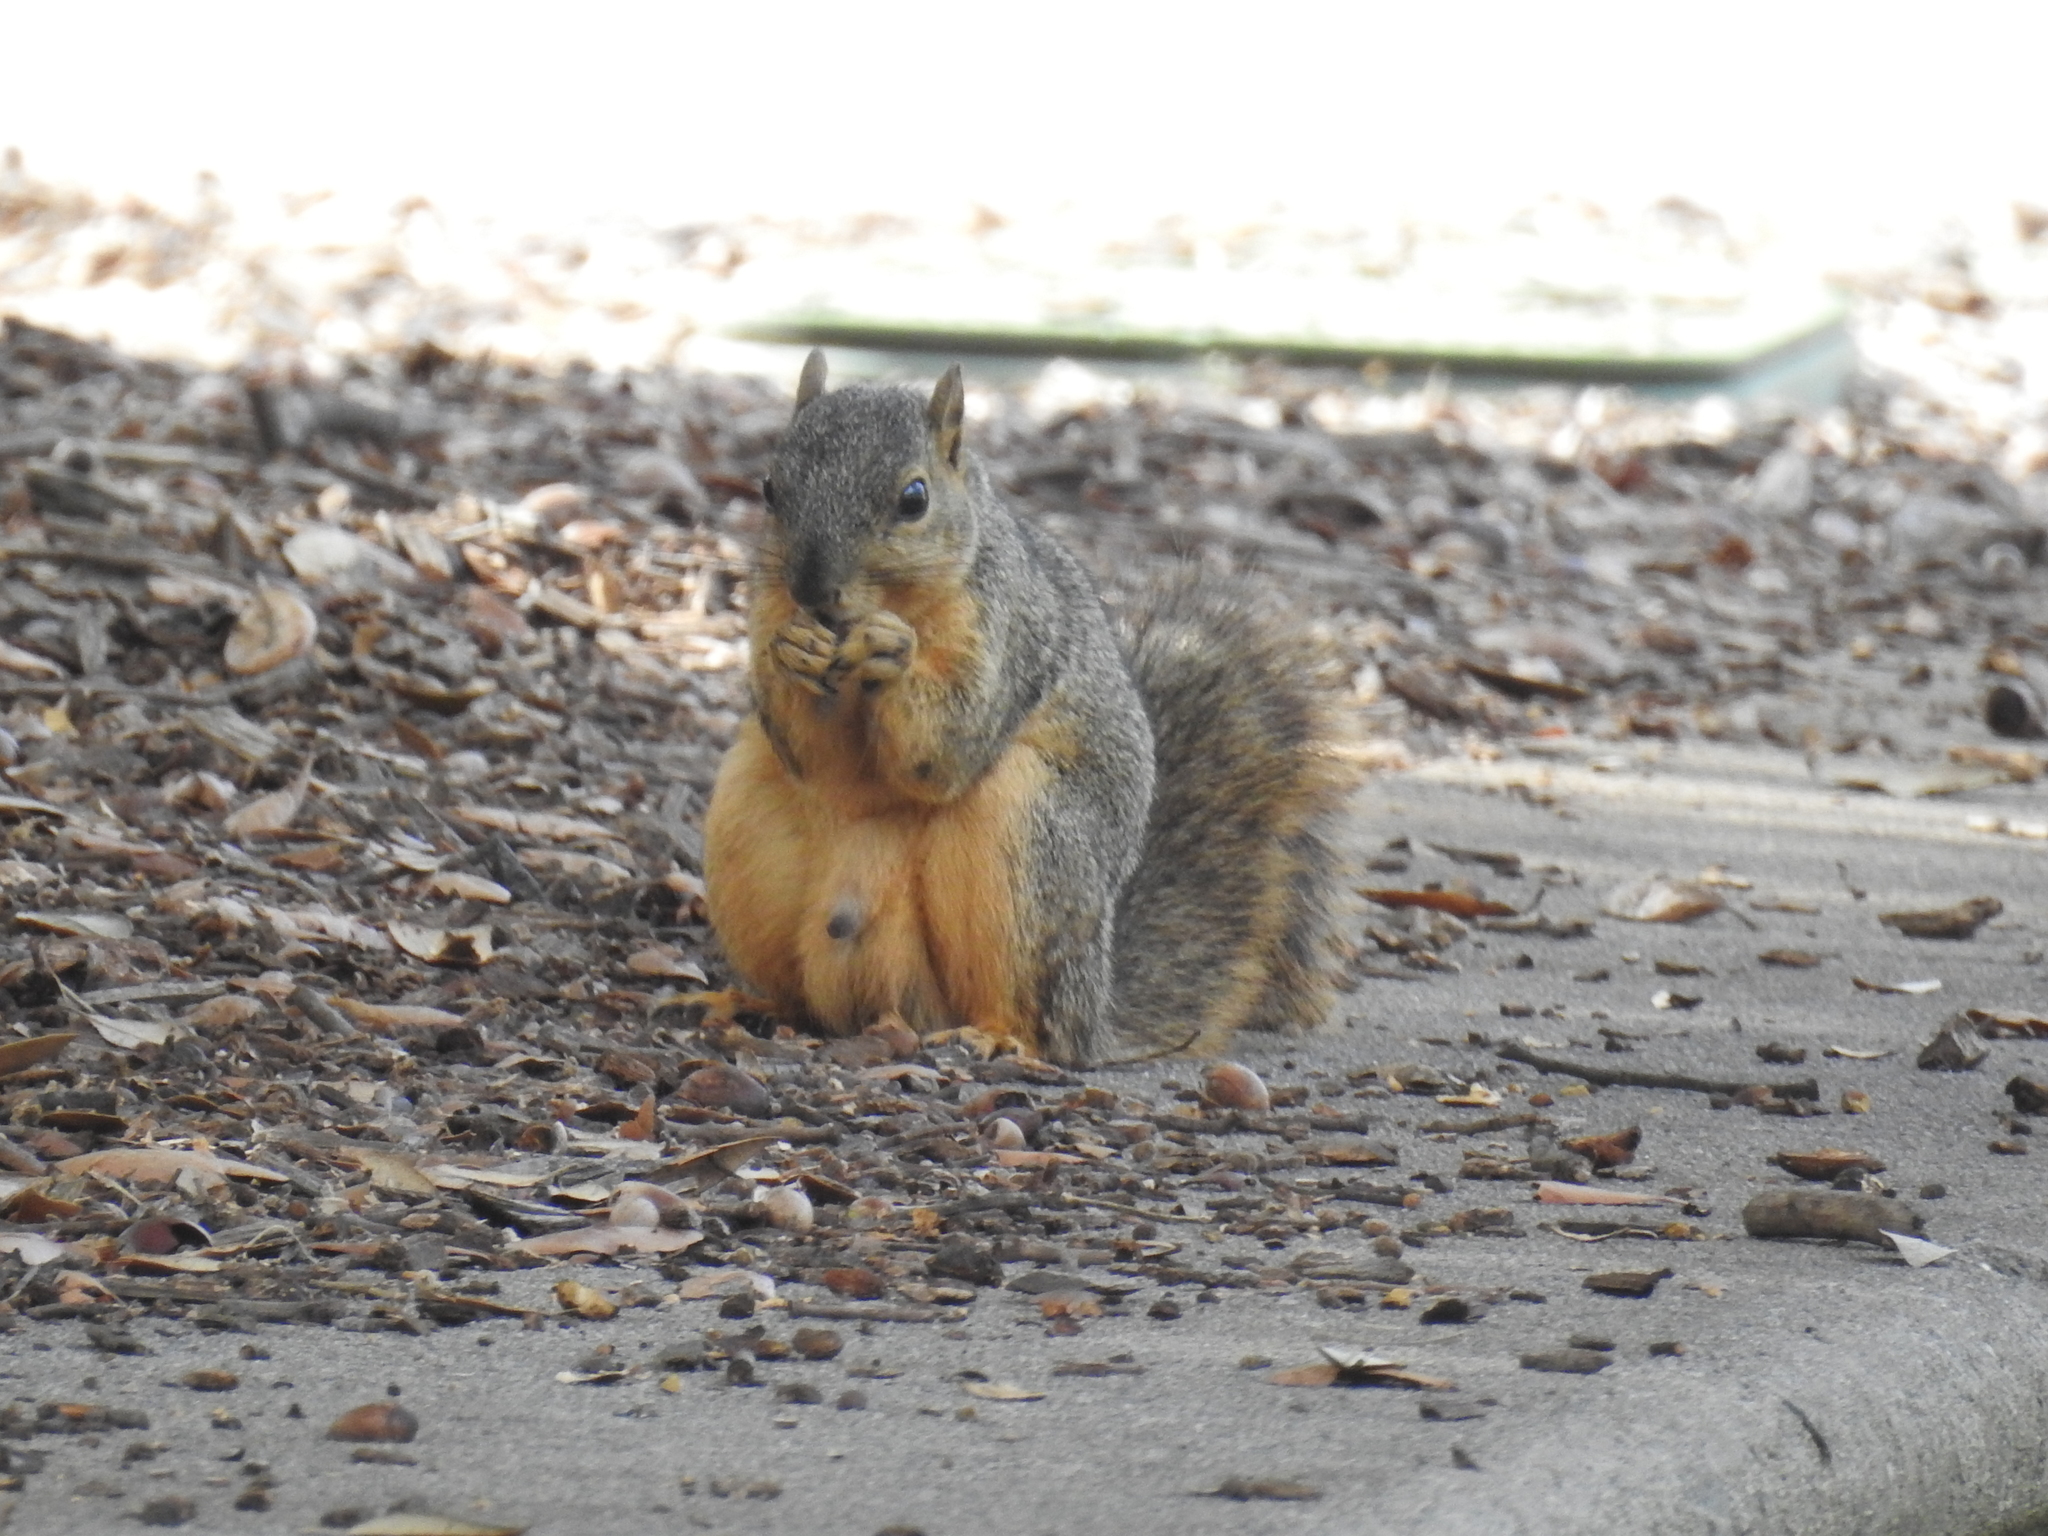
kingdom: Animalia
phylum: Chordata
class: Mammalia
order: Rodentia
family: Sciuridae
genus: Sciurus
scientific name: Sciurus niger
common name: Fox squirrel
